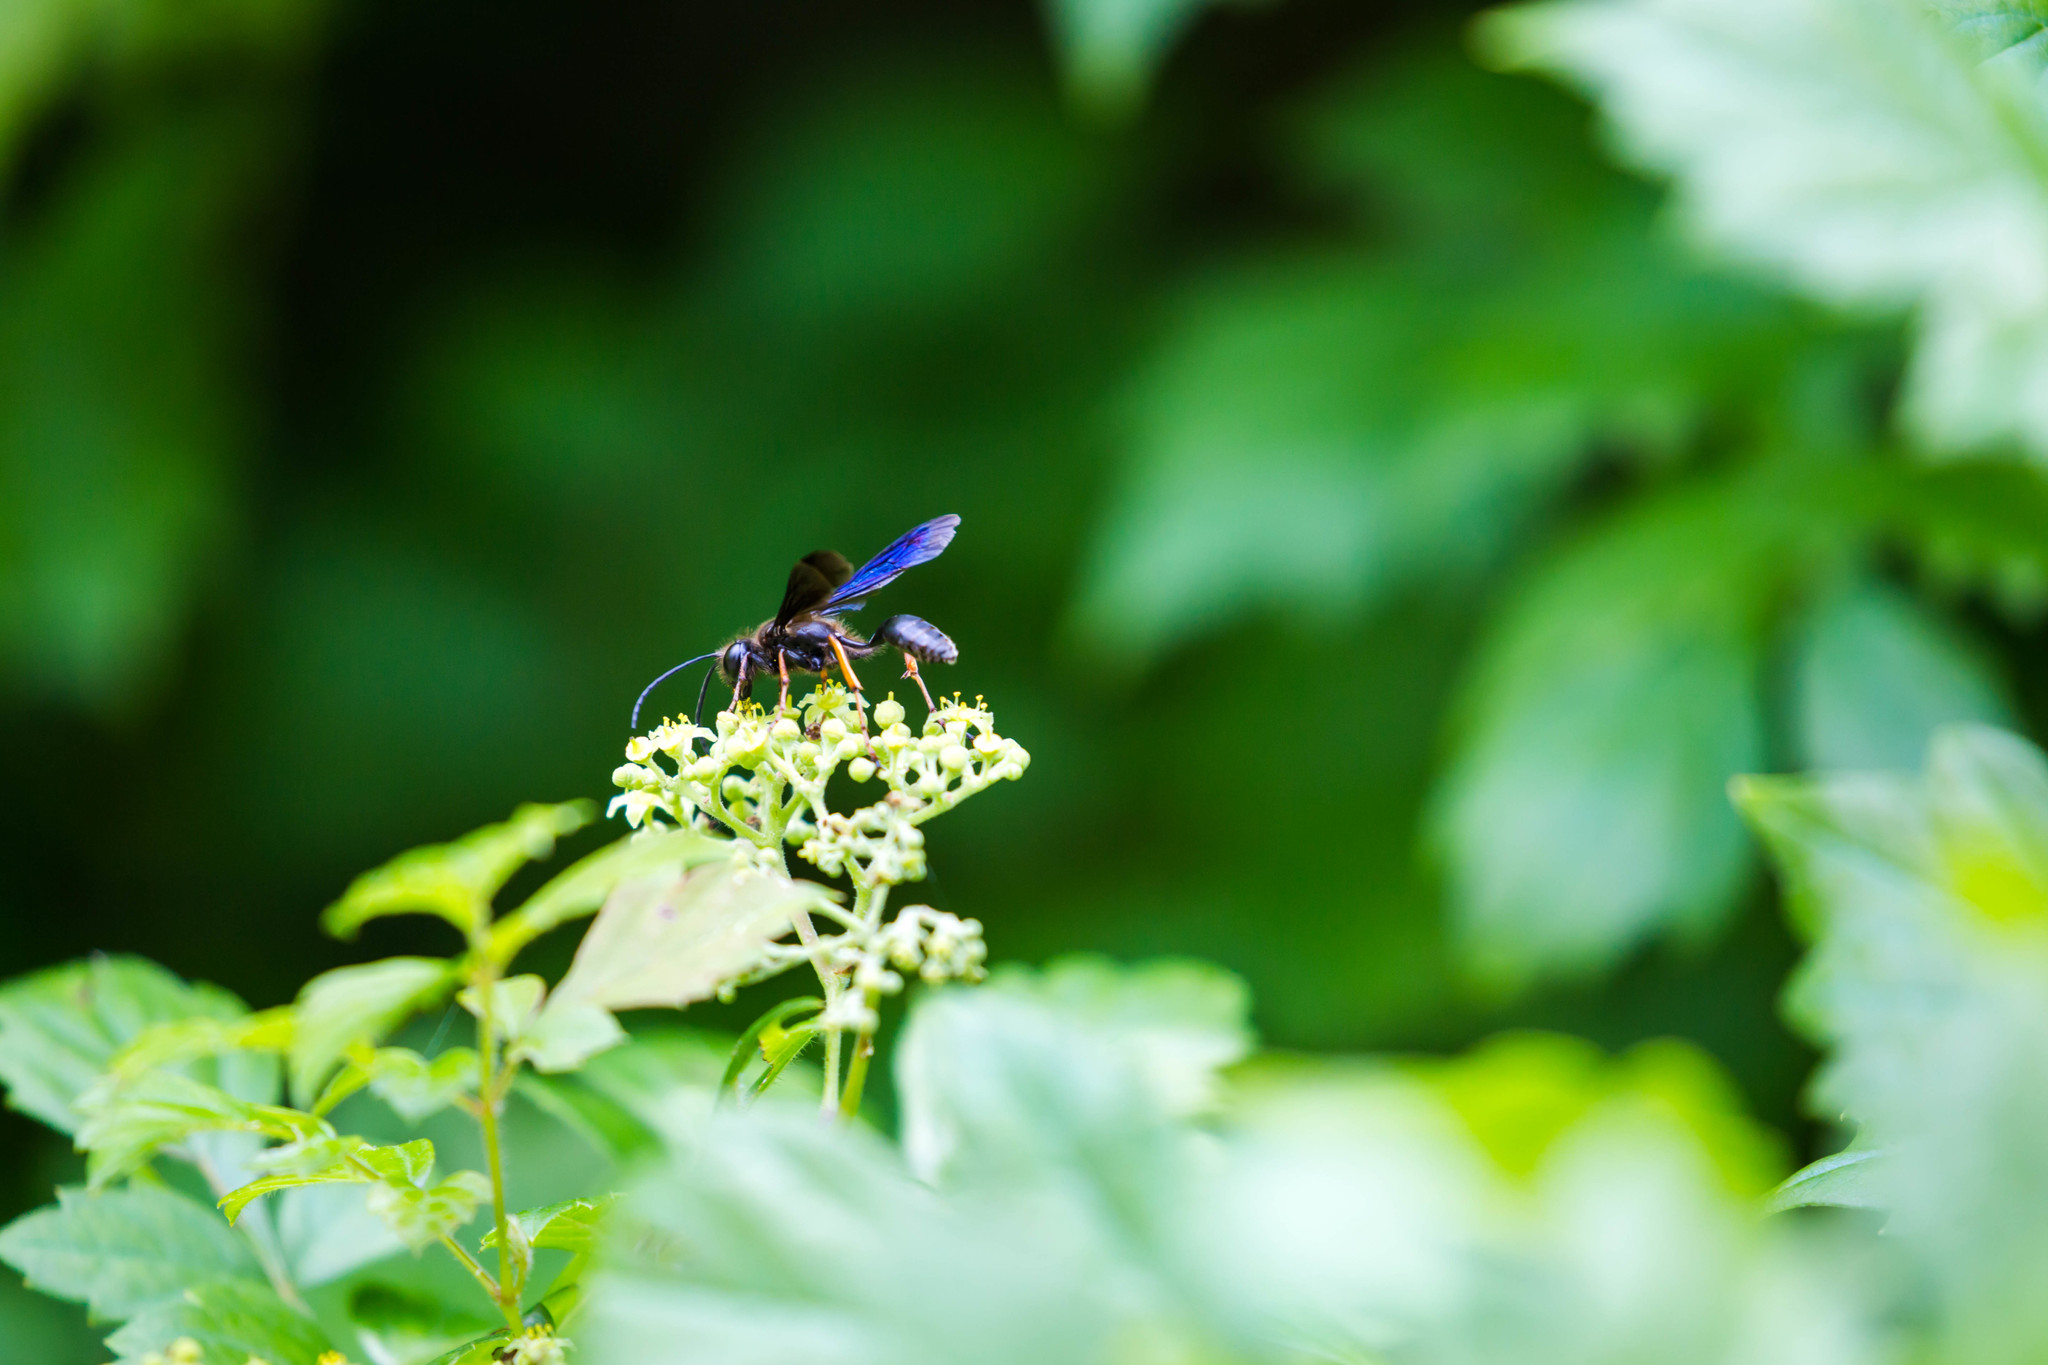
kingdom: Animalia
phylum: Arthropoda
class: Insecta
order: Hymenoptera
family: Sphecidae
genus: Isodontia
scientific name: Isodontia auripes
